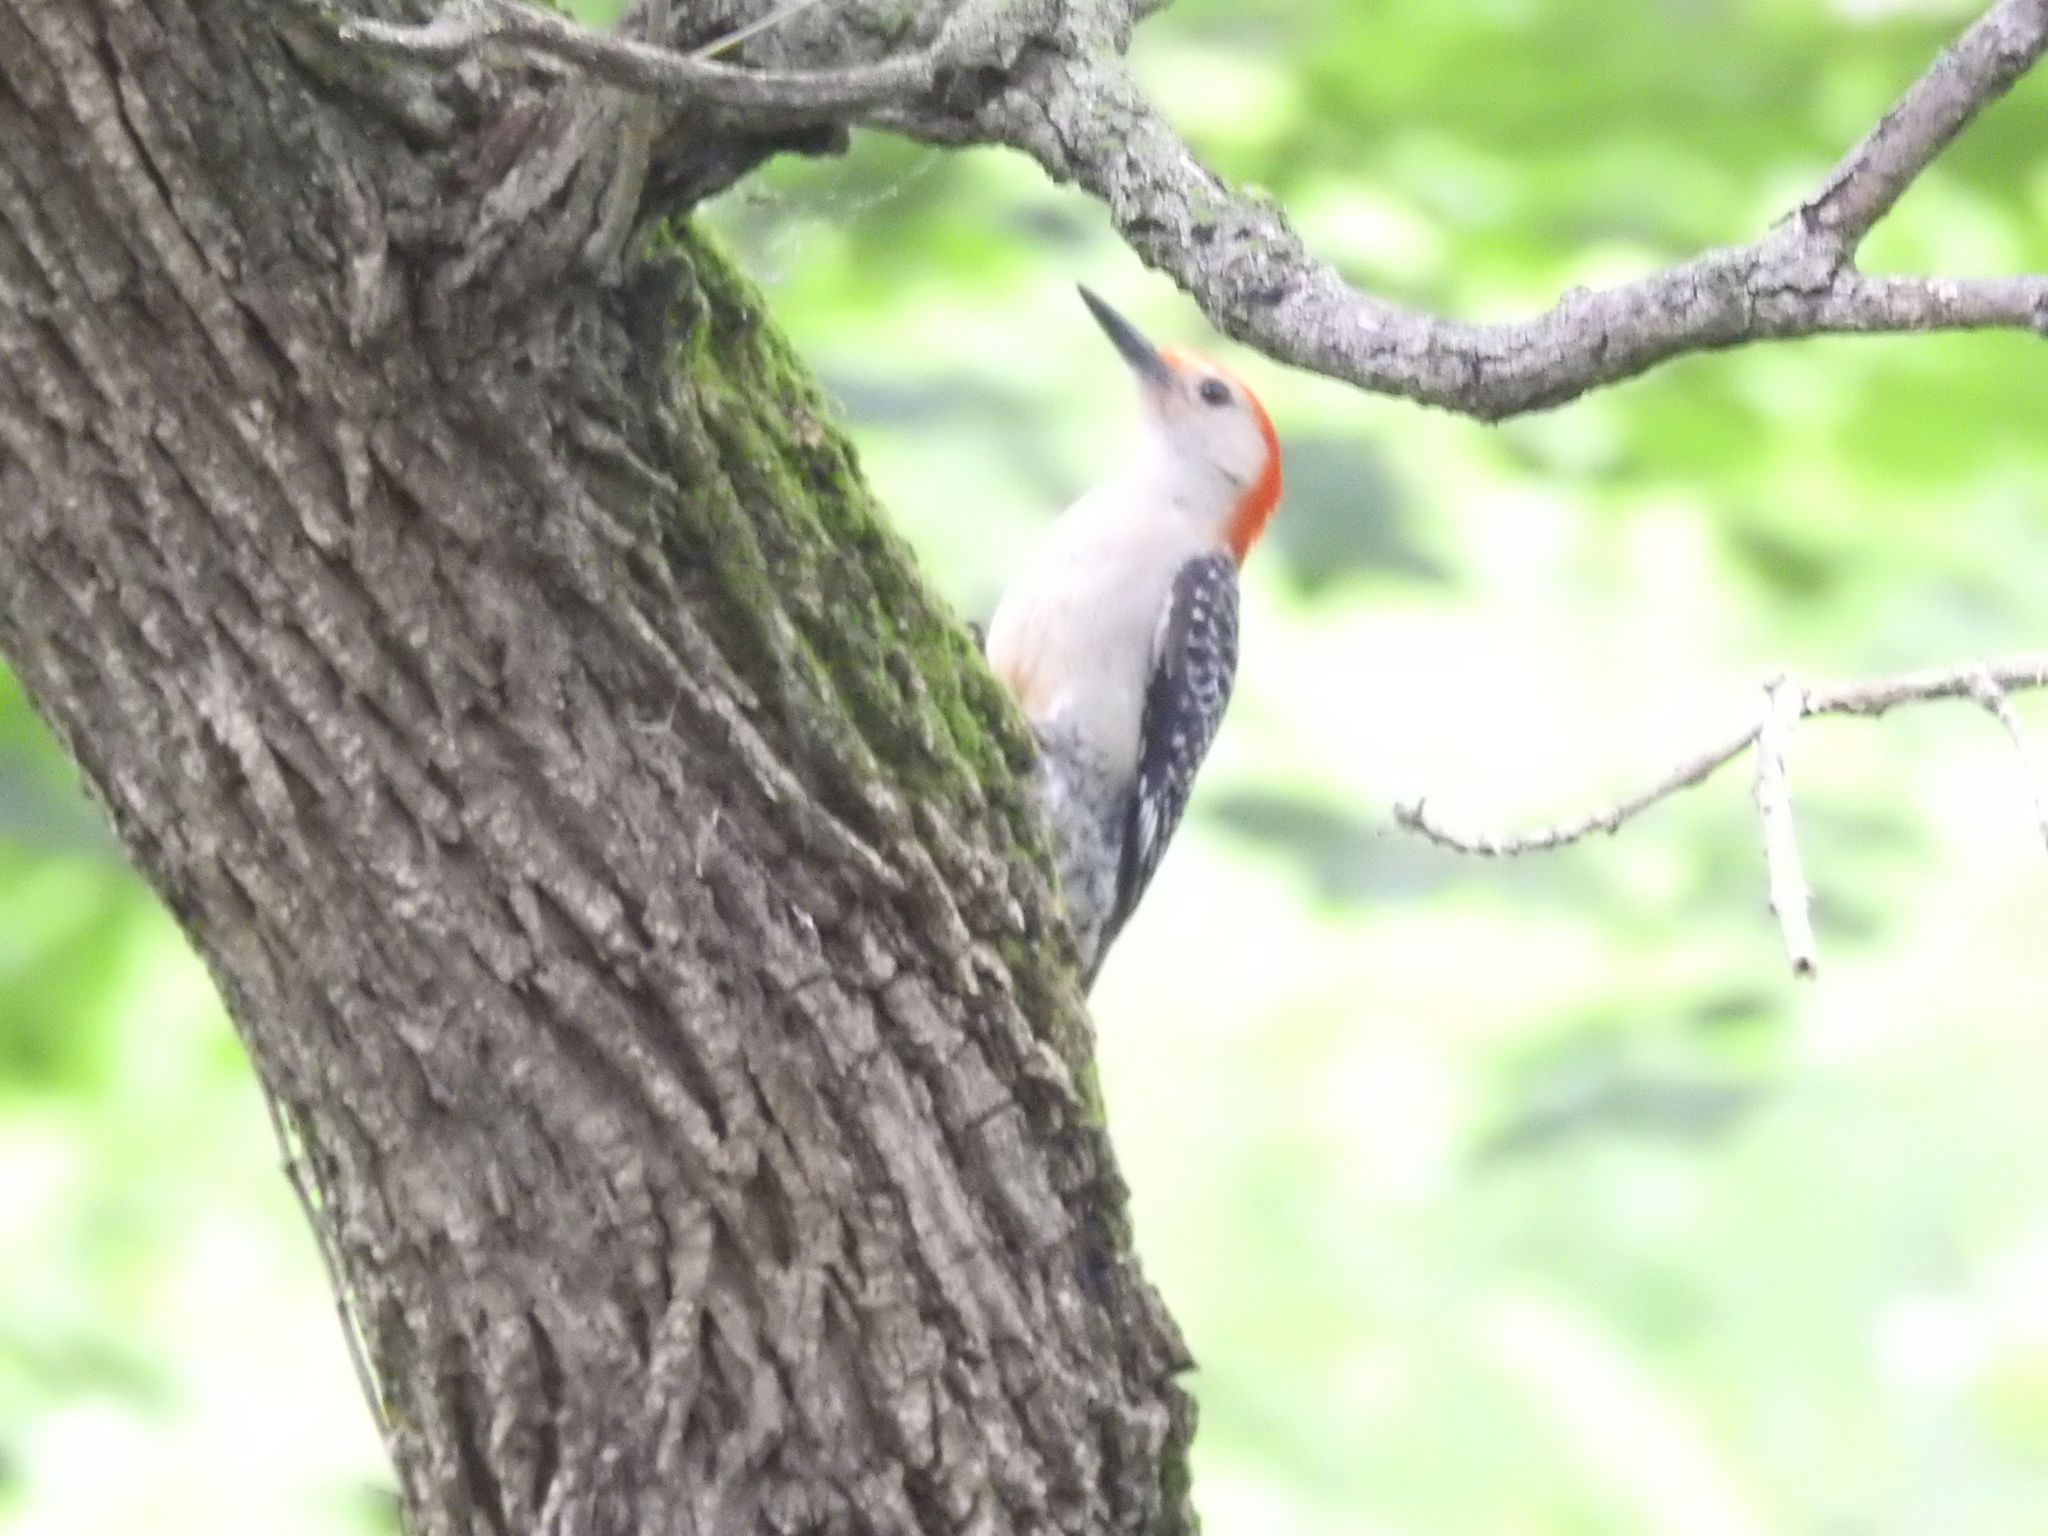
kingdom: Animalia
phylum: Chordata
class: Aves
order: Piciformes
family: Picidae
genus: Melanerpes
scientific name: Melanerpes carolinus
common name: Red-bellied woodpecker
